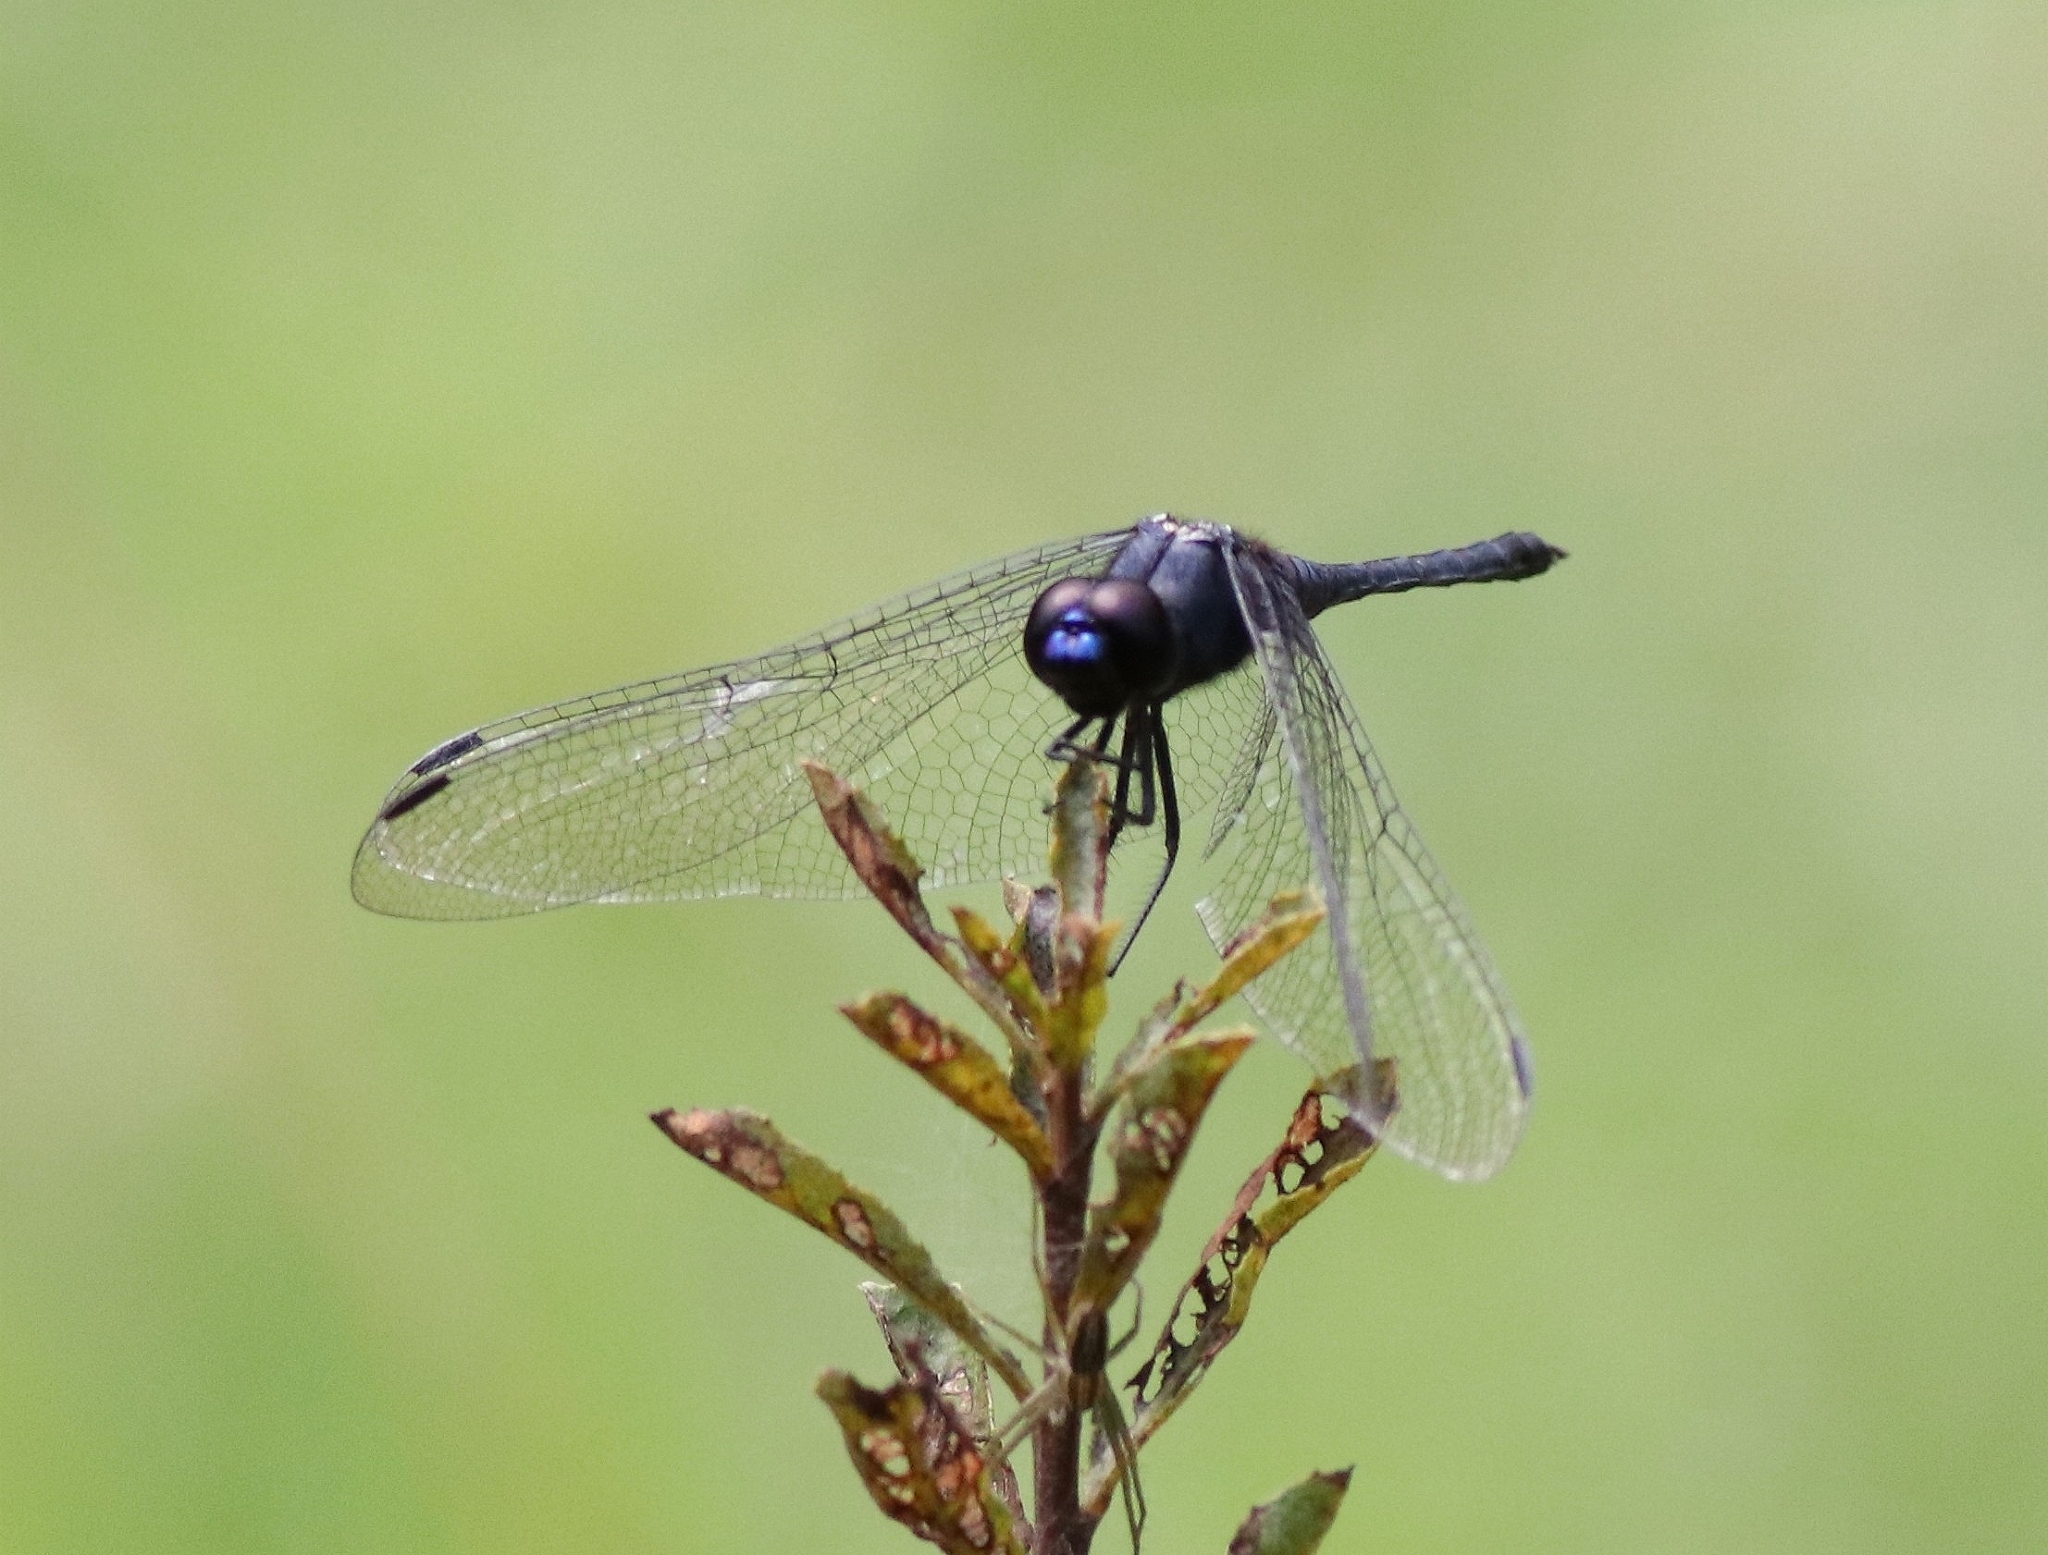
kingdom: Animalia
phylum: Arthropoda
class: Insecta
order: Odonata
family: Libellulidae
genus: Trithemis
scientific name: Trithemis festiva
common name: Indigo dropwing
